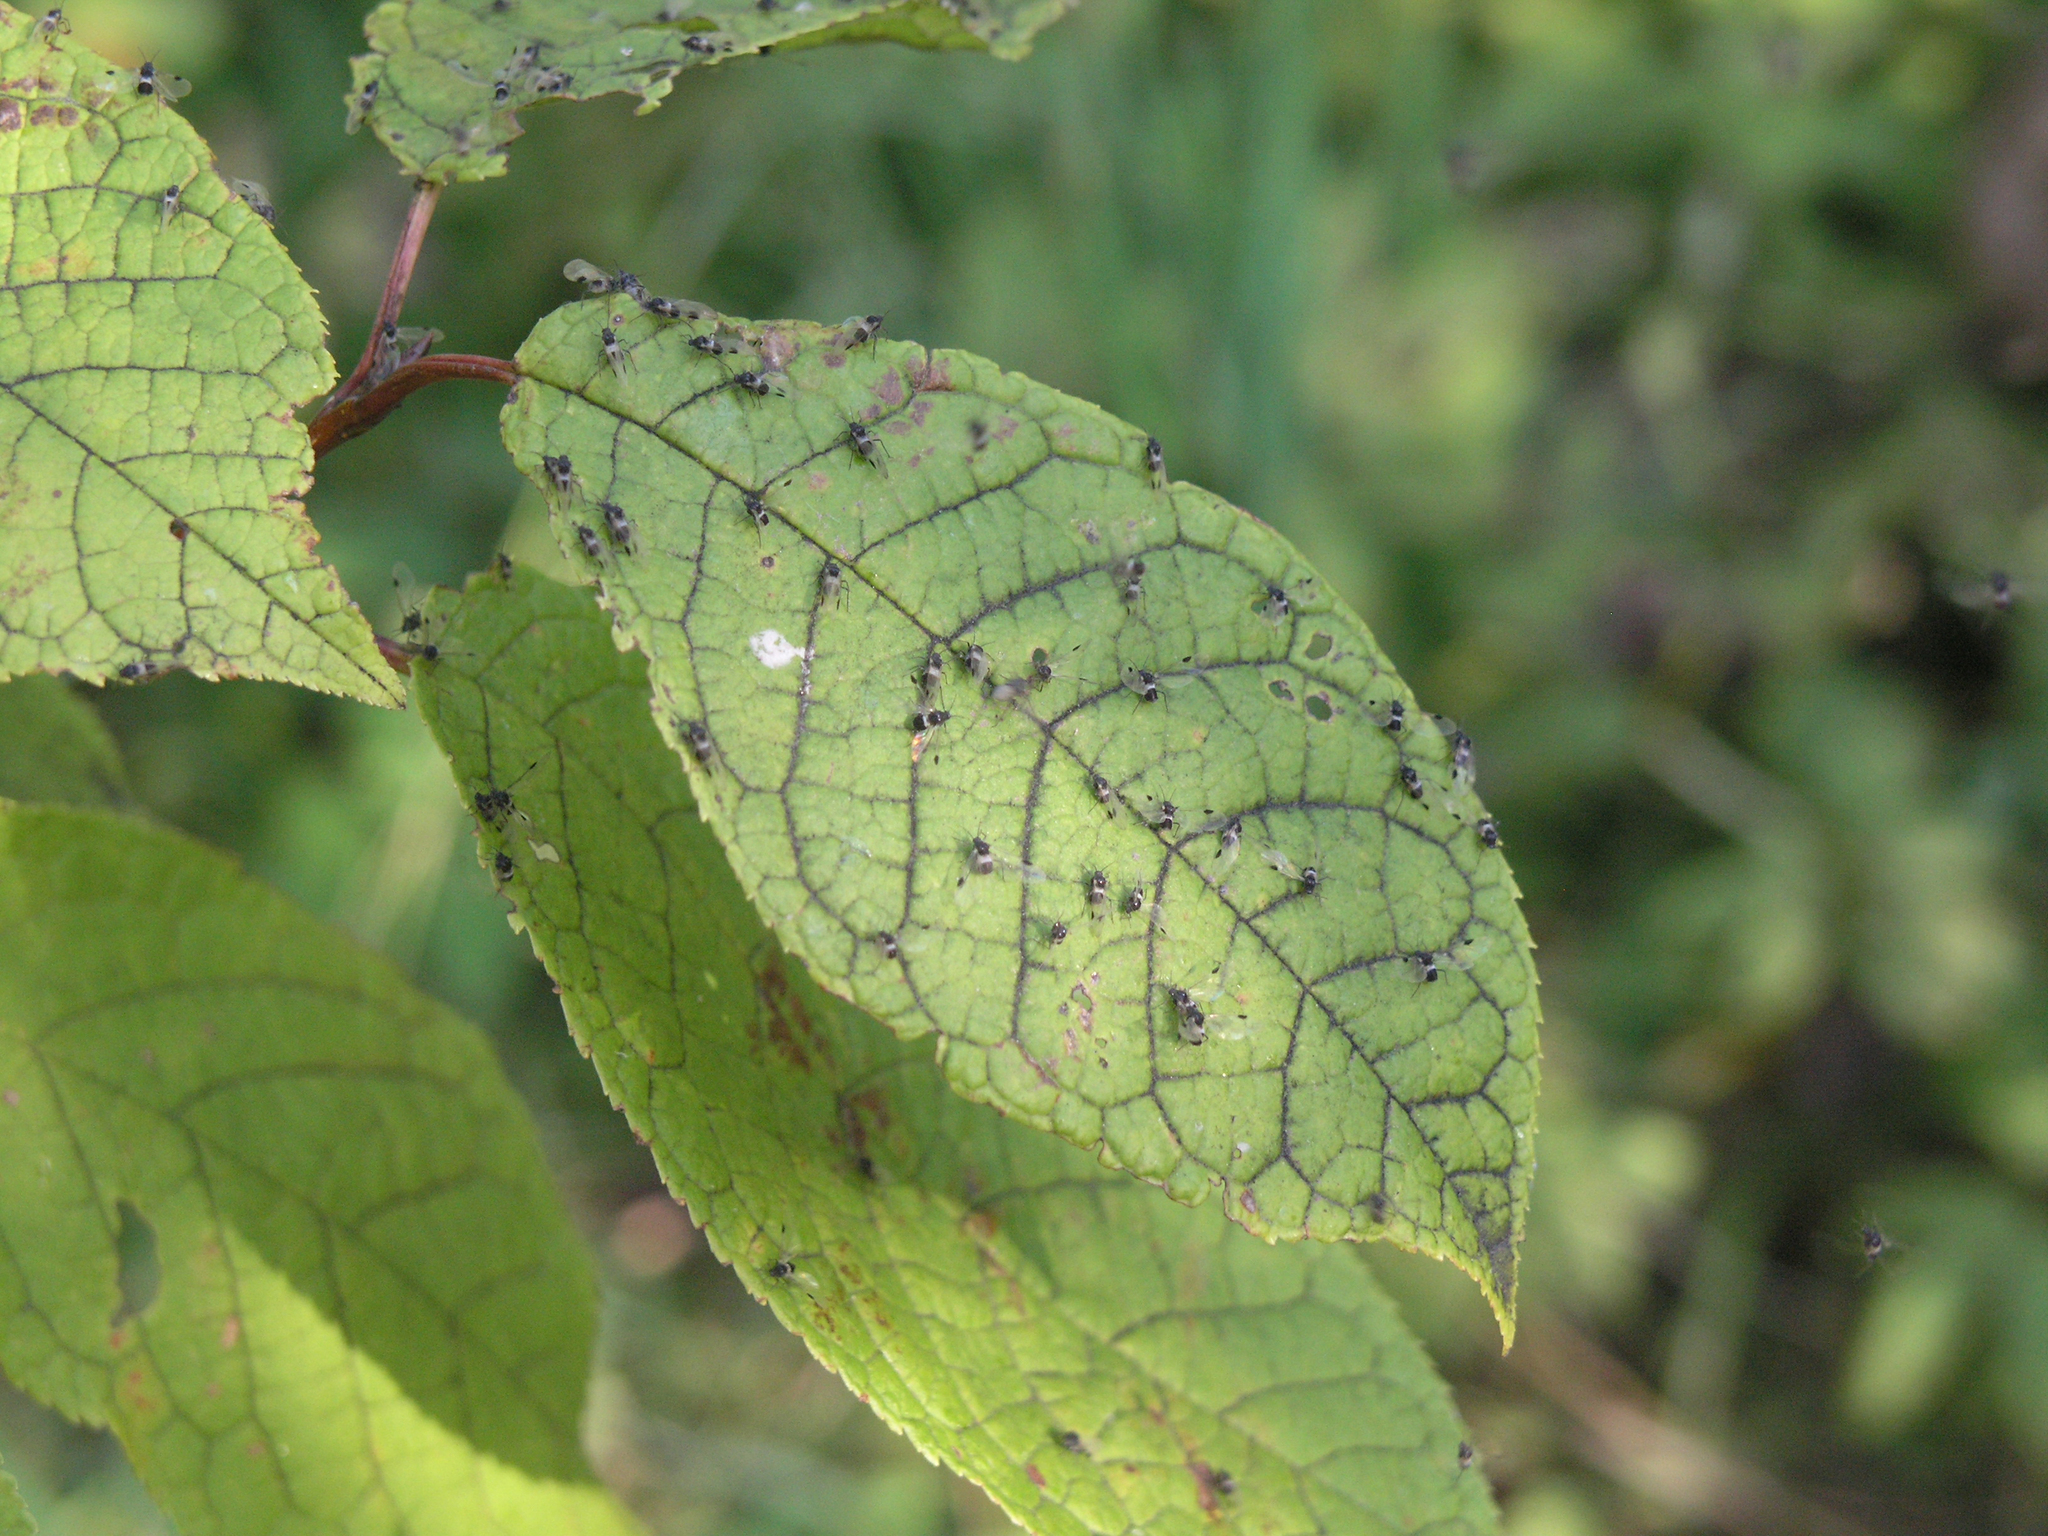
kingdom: Plantae
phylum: Tracheophyta
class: Magnoliopsida
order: Rosales
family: Rosaceae
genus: Prunus
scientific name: Prunus padus
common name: Bird cherry
